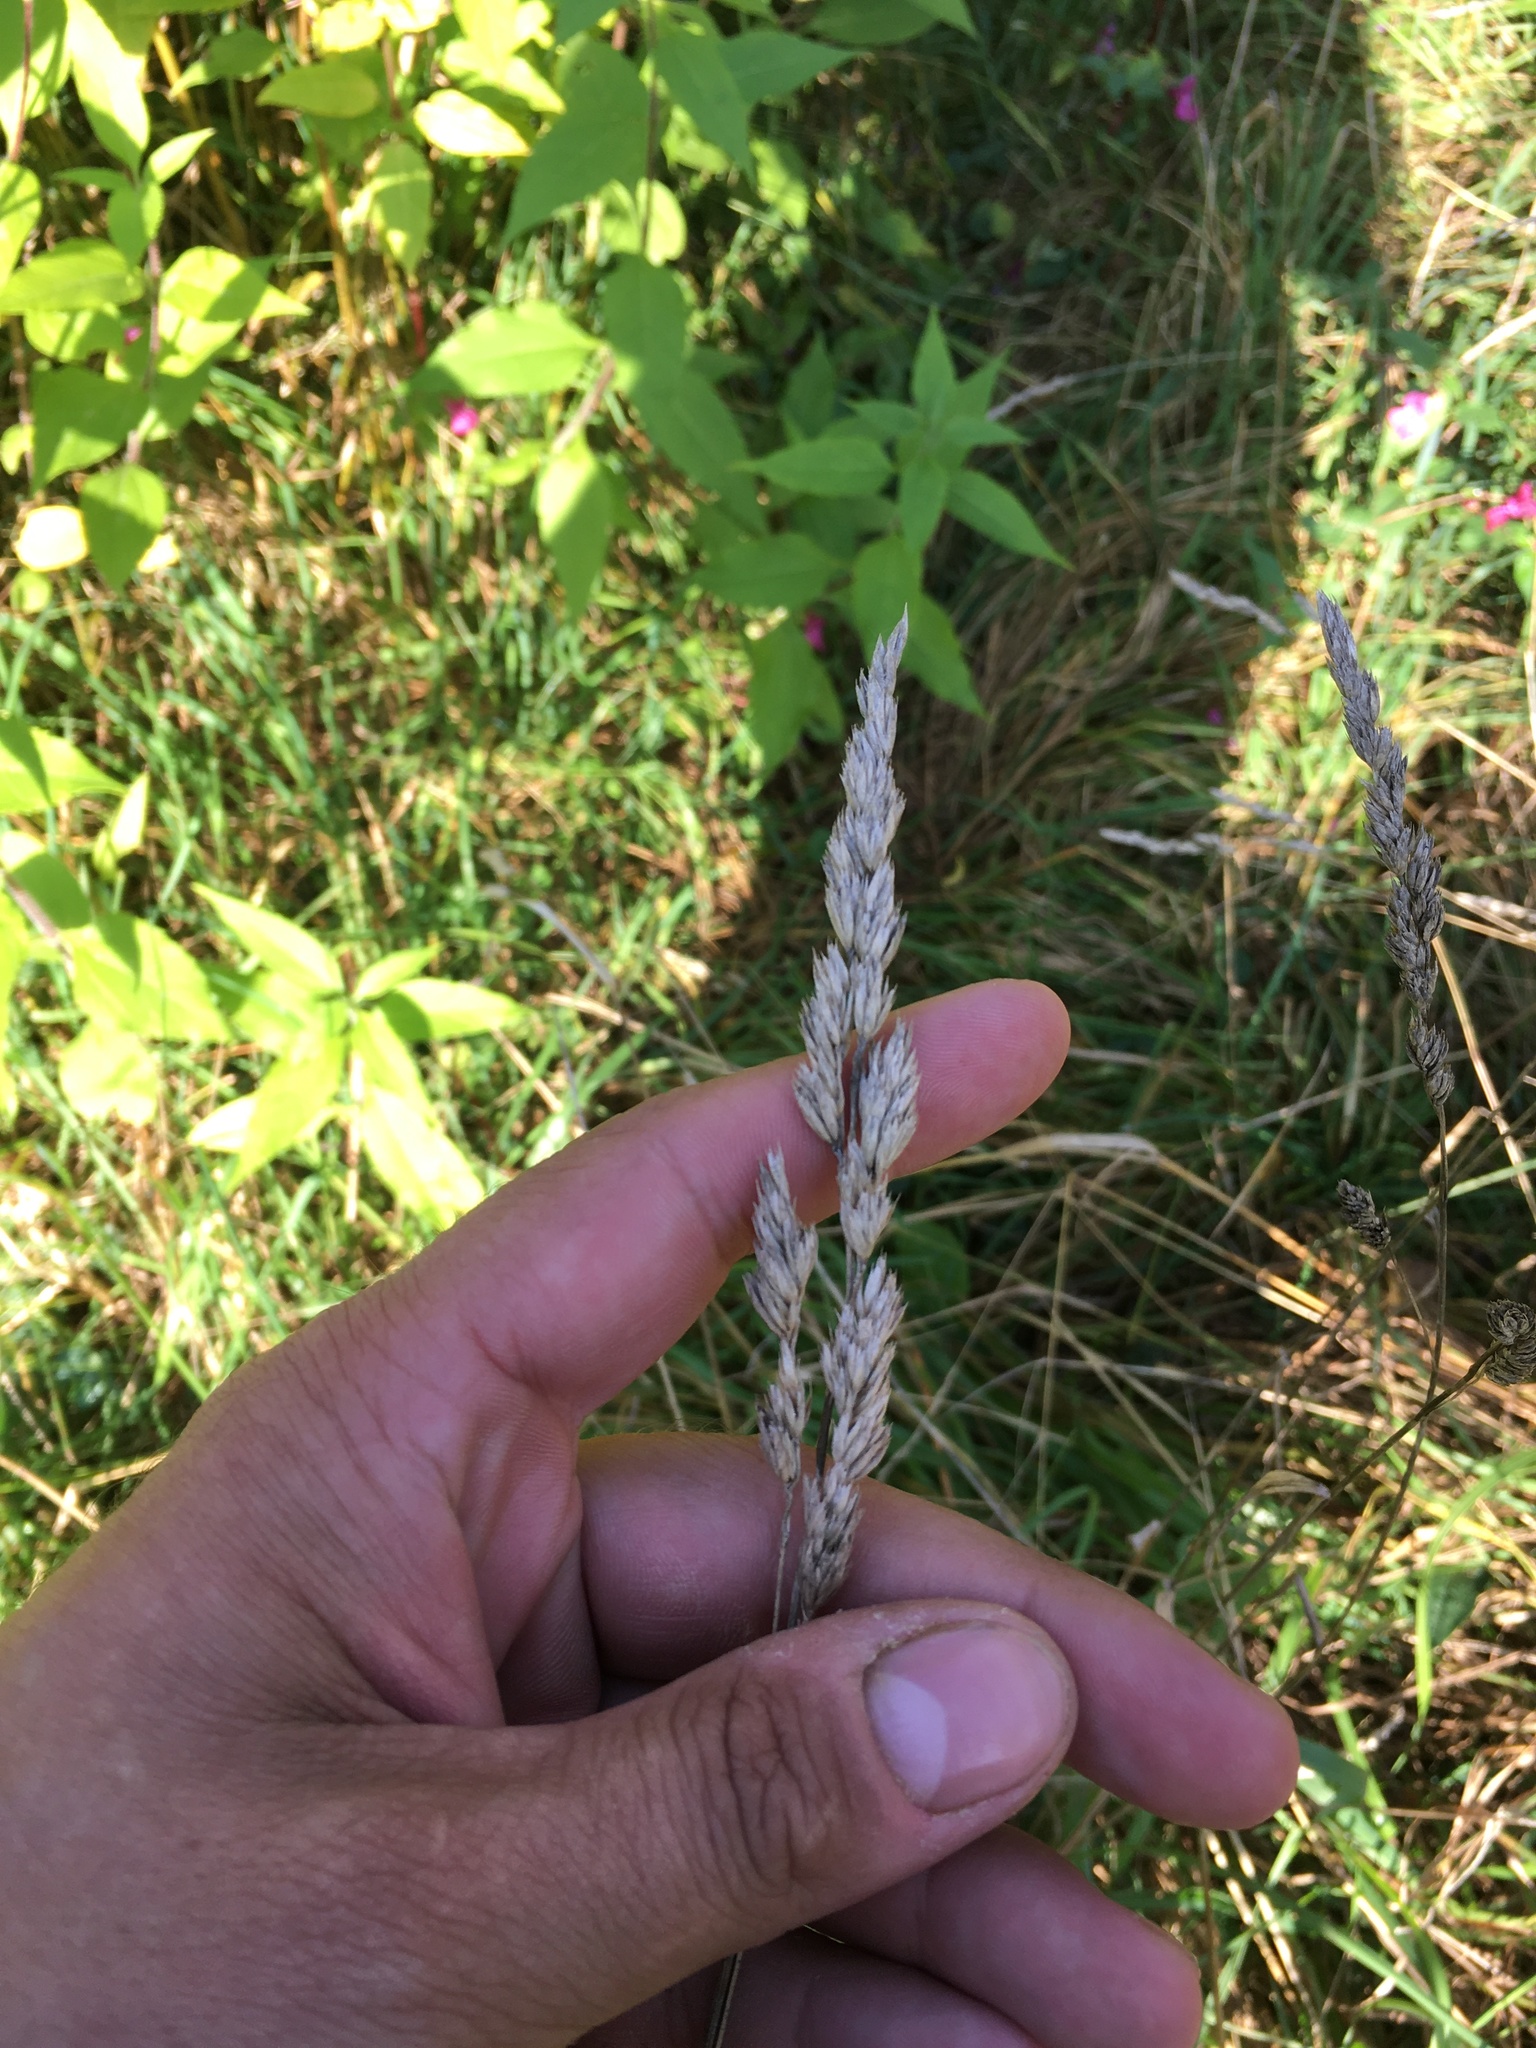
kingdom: Plantae
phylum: Tracheophyta
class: Liliopsida
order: Poales
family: Poaceae
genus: Dactylis
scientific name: Dactylis glomerata
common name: Orchardgrass
